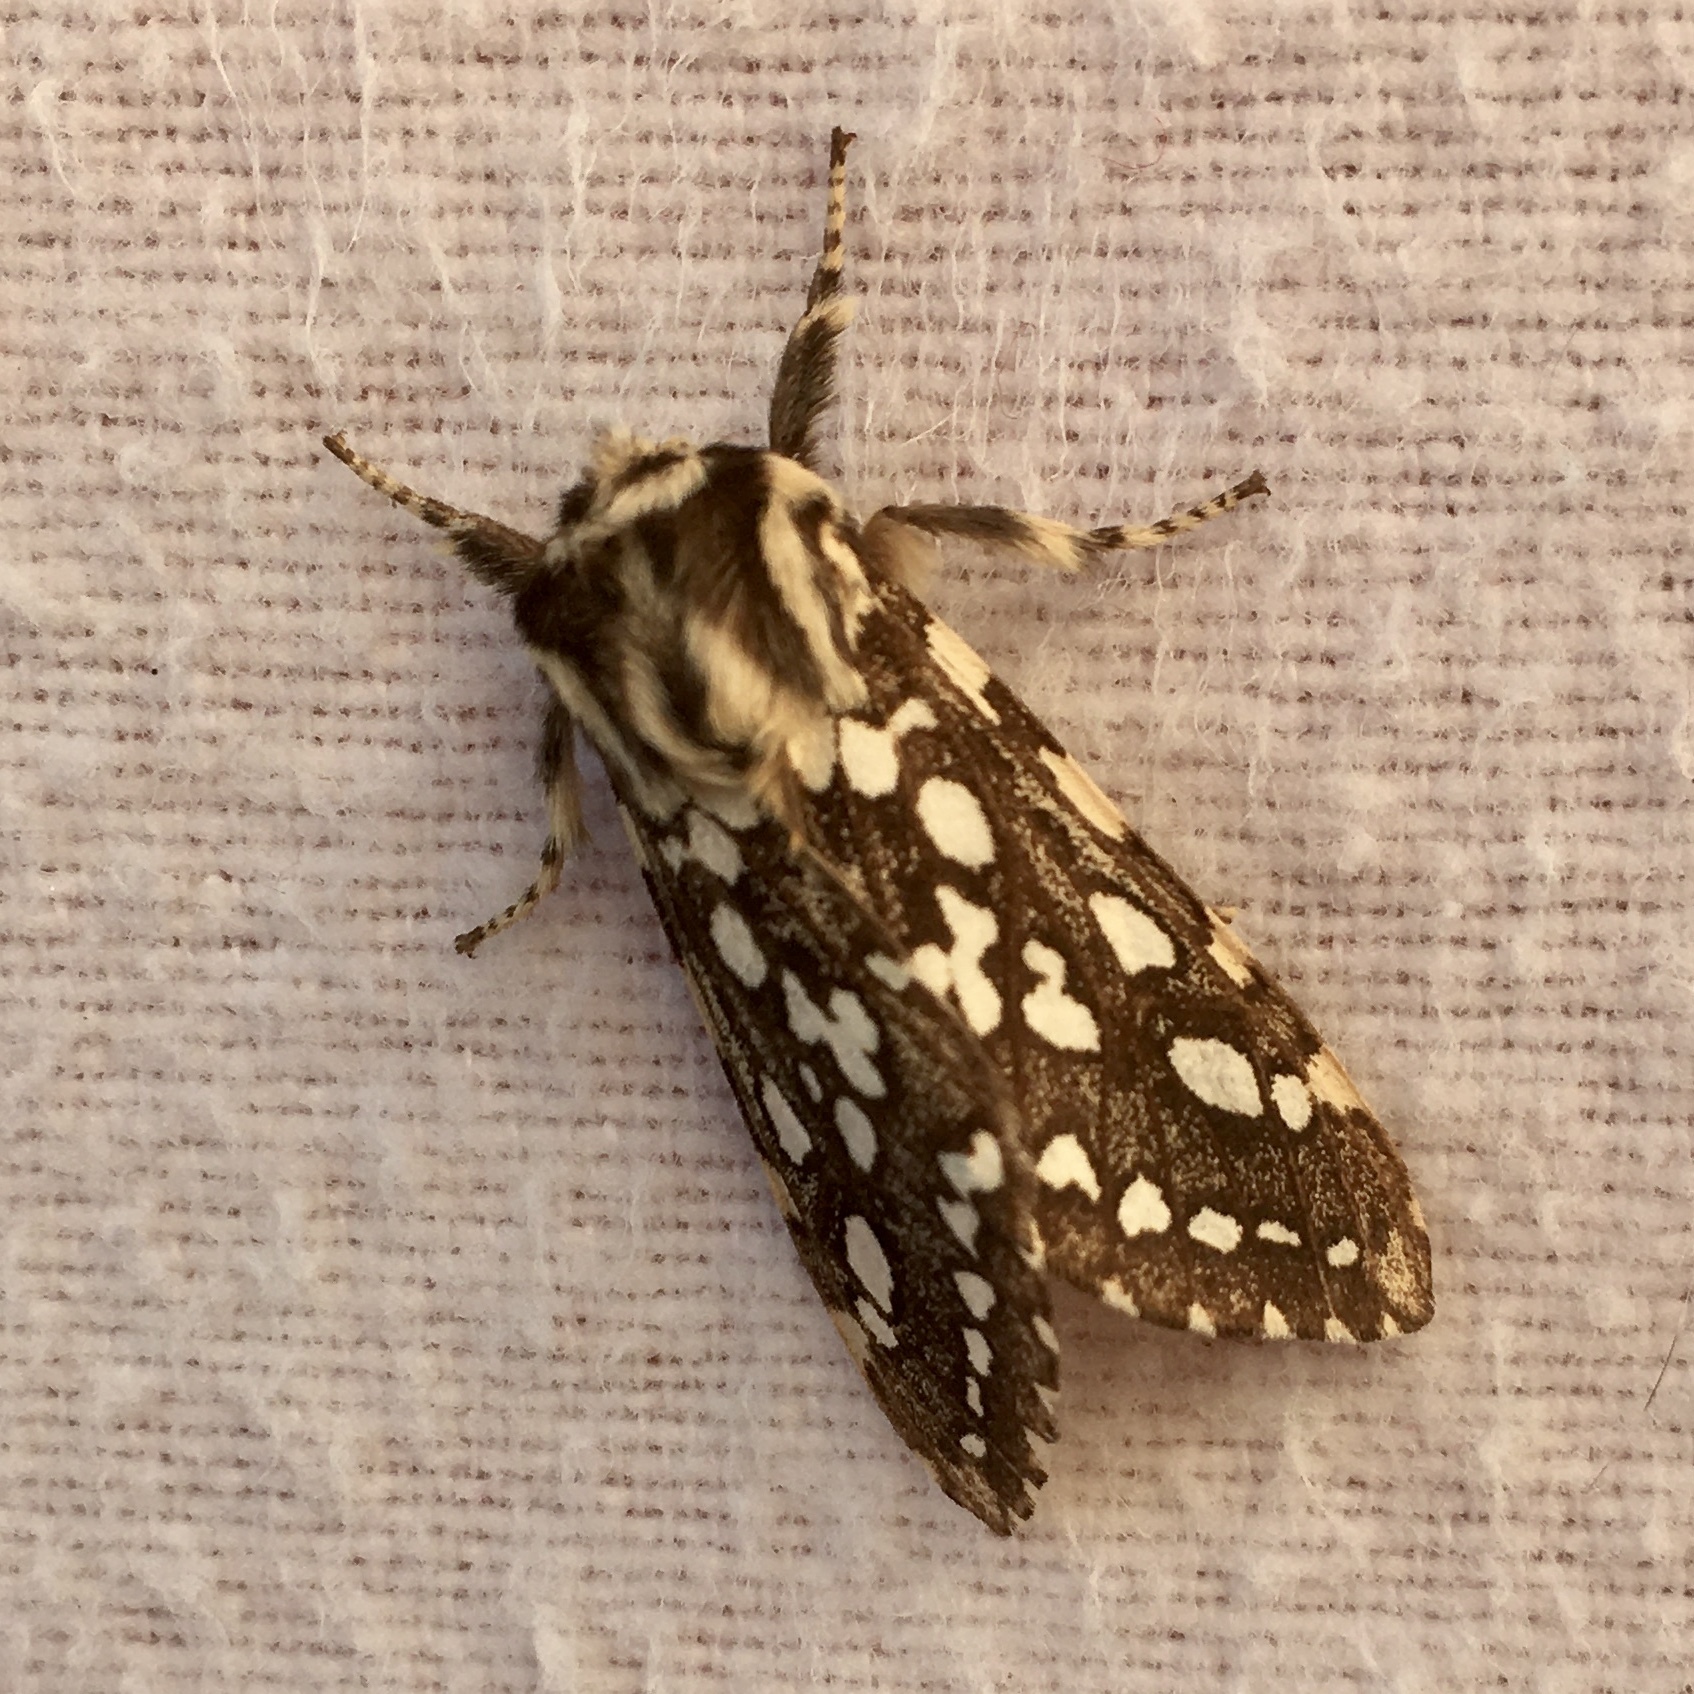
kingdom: Animalia
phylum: Arthropoda
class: Insecta
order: Lepidoptera
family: Erebidae
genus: Lophocampa
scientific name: Lophocampa argentata
